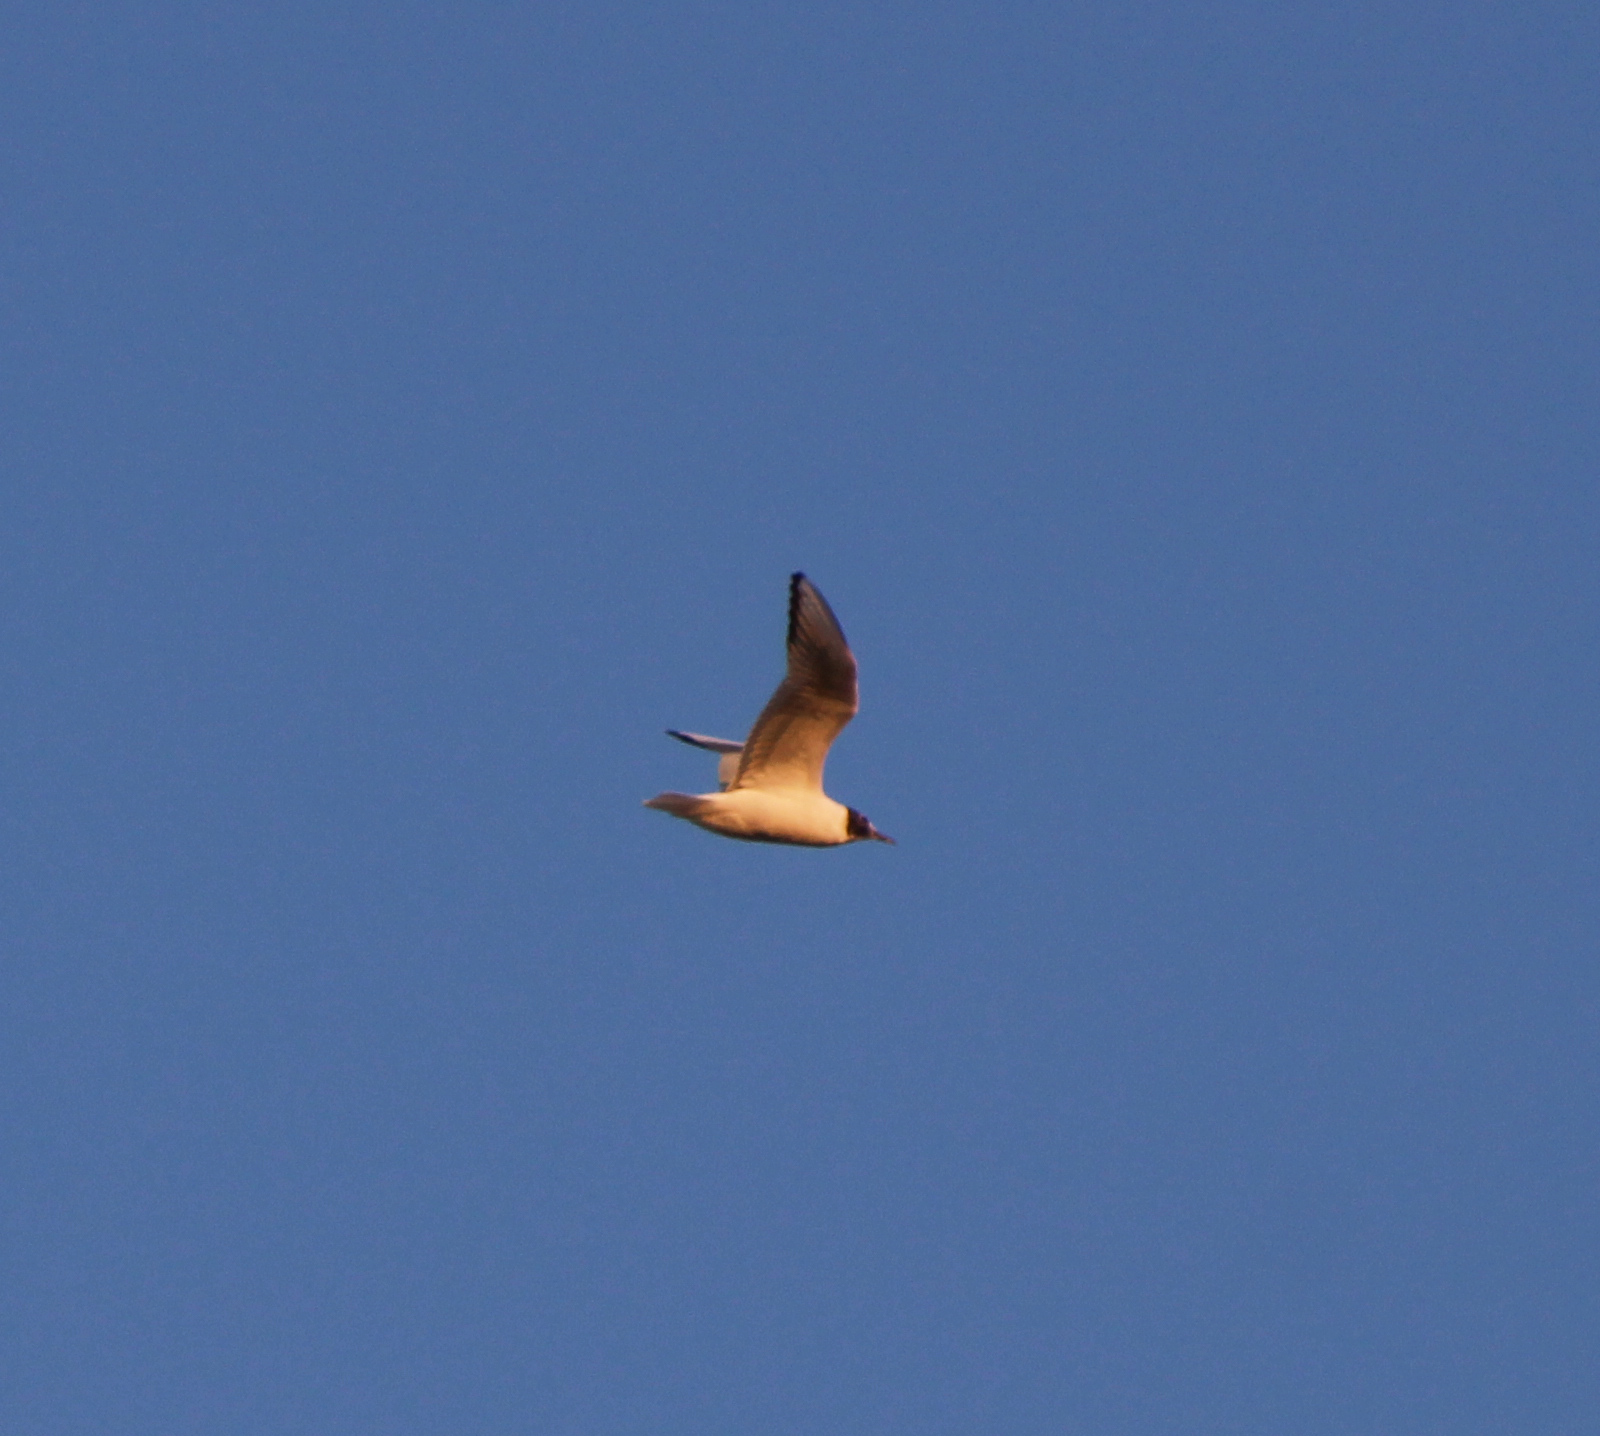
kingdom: Animalia
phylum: Chordata
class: Aves
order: Charadriiformes
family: Laridae
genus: Chroicocephalus
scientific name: Chroicocephalus philadelphia
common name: Bonaparte's gull
